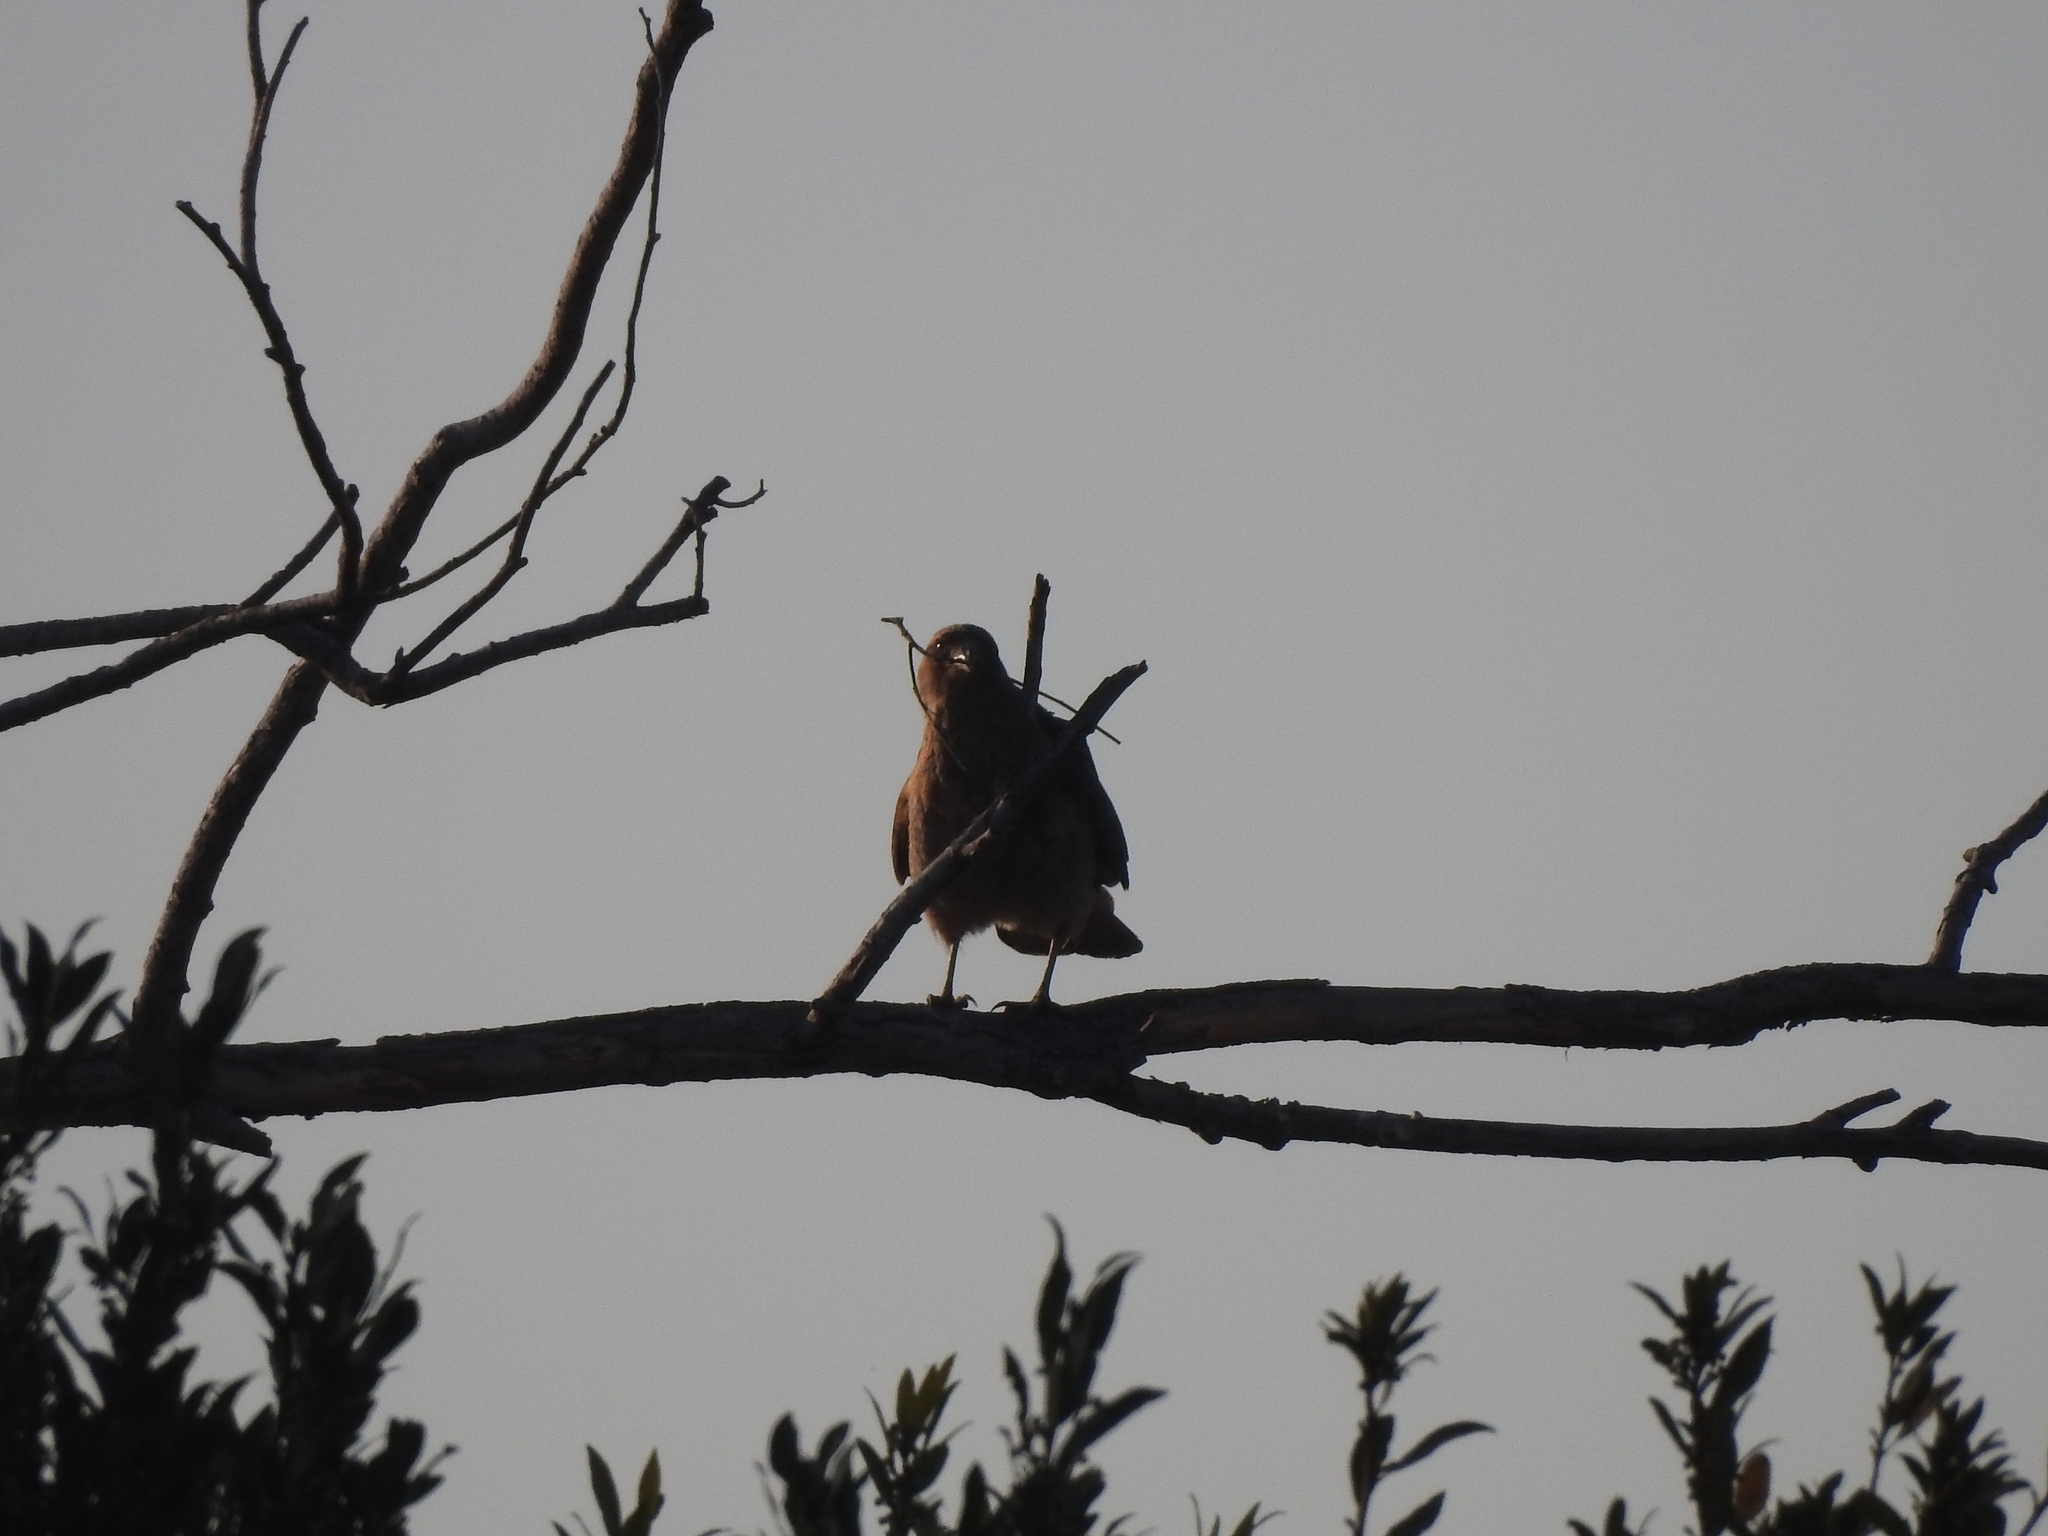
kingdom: Animalia
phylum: Chordata
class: Aves
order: Falconiformes
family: Falconidae
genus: Daptrius
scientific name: Daptrius
